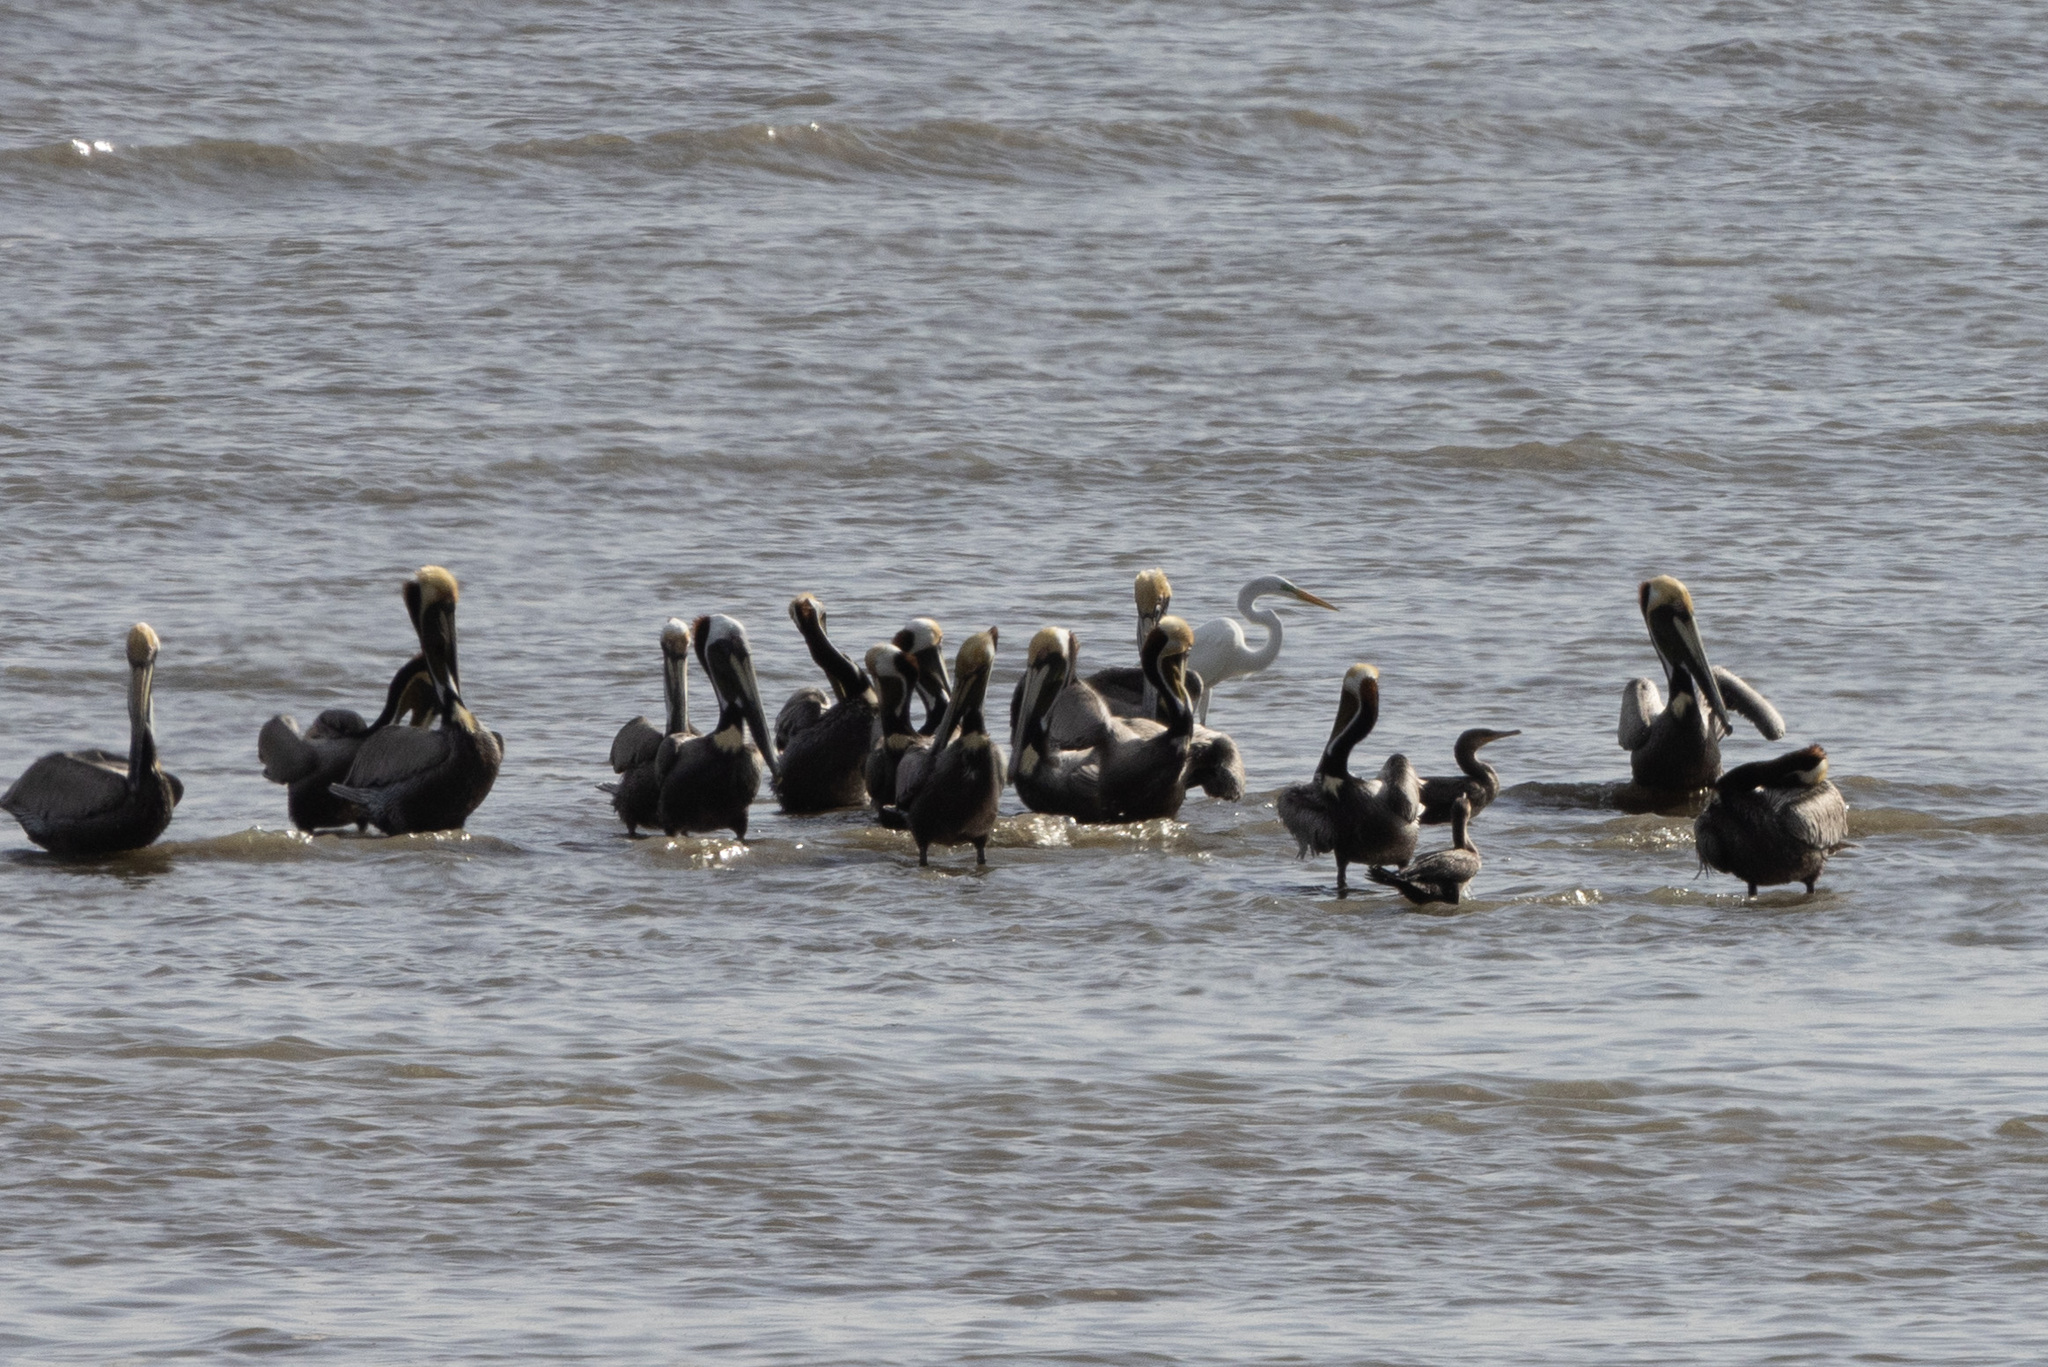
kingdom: Animalia
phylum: Chordata
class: Aves
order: Pelecaniformes
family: Pelecanidae
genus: Pelecanus
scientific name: Pelecanus occidentalis
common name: Brown pelican
